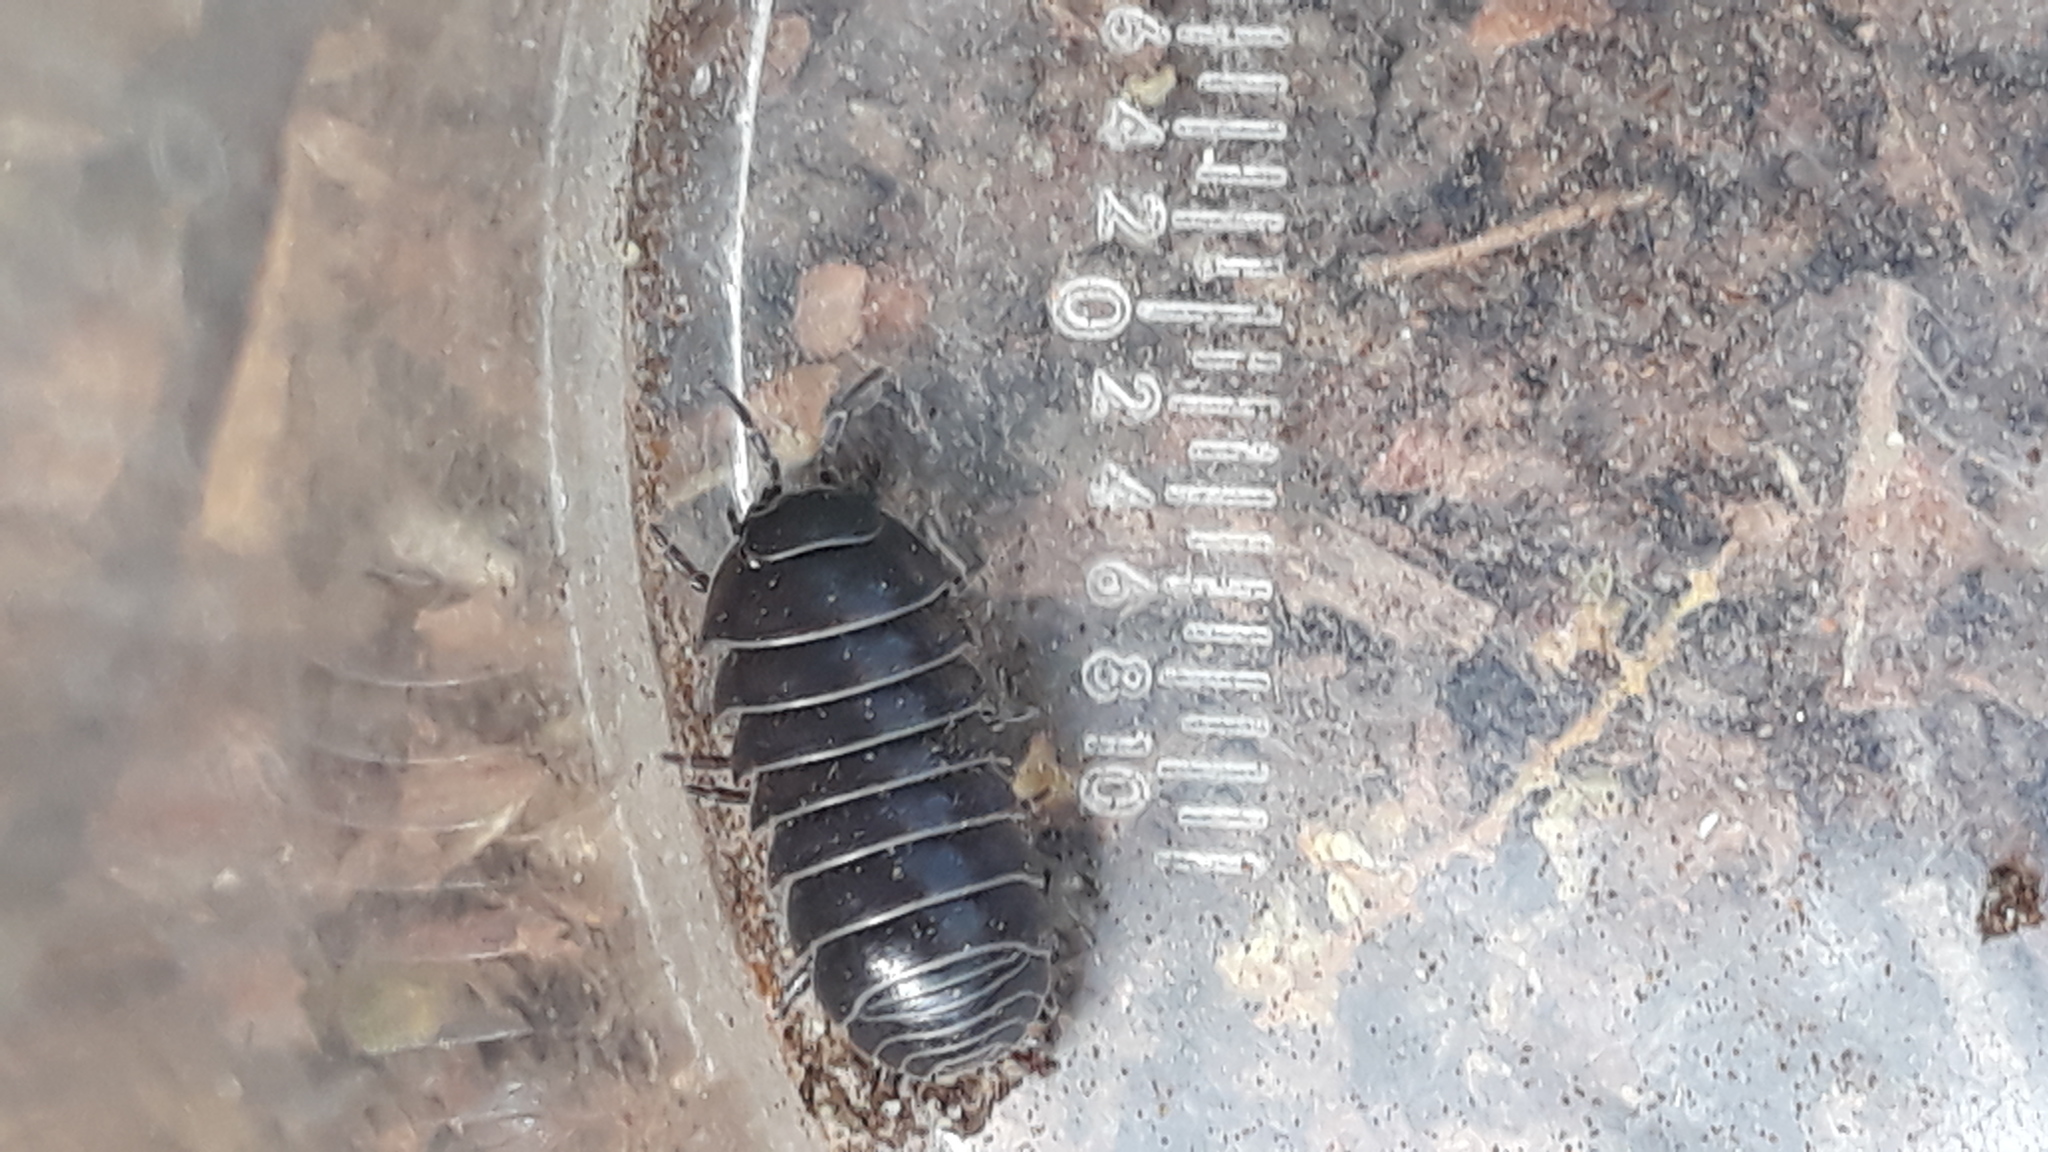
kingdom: Animalia
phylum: Arthropoda
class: Malacostraca
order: Isopoda
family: Armadillidiidae
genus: Armadillidium
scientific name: Armadillidium vulgare
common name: Common pill woodlouse
